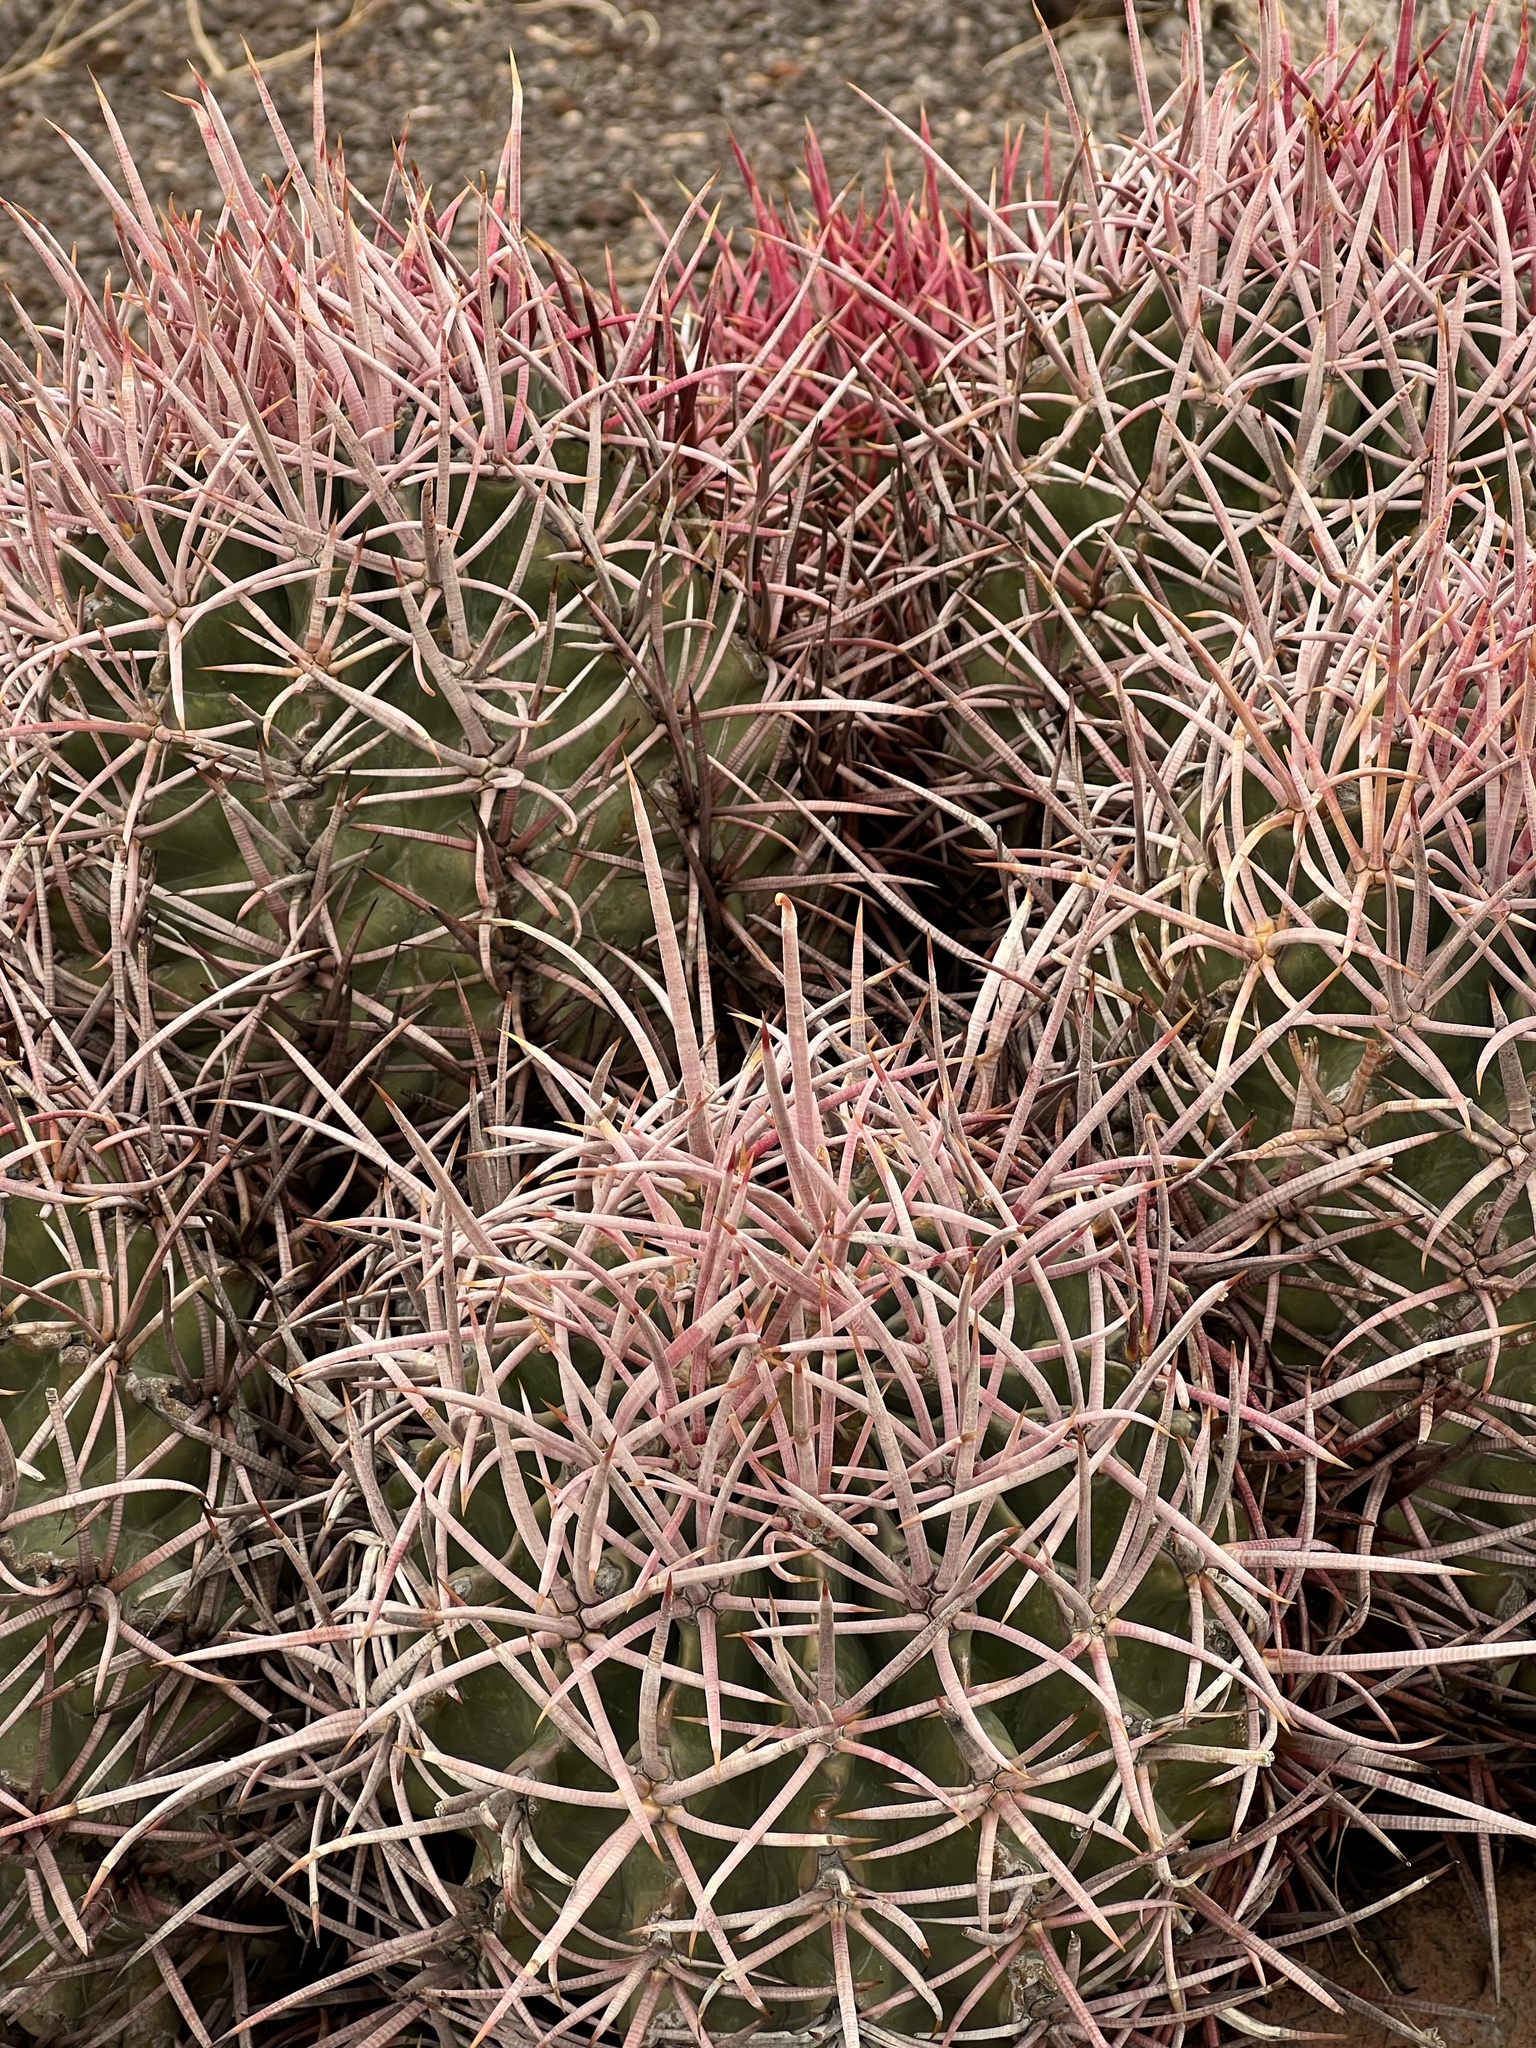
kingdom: Plantae
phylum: Tracheophyta
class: Magnoliopsida
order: Caryophyllales
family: Cactaceae
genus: Echinocactus
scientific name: Echinocactus polycephalus
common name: Cottontop cactus
